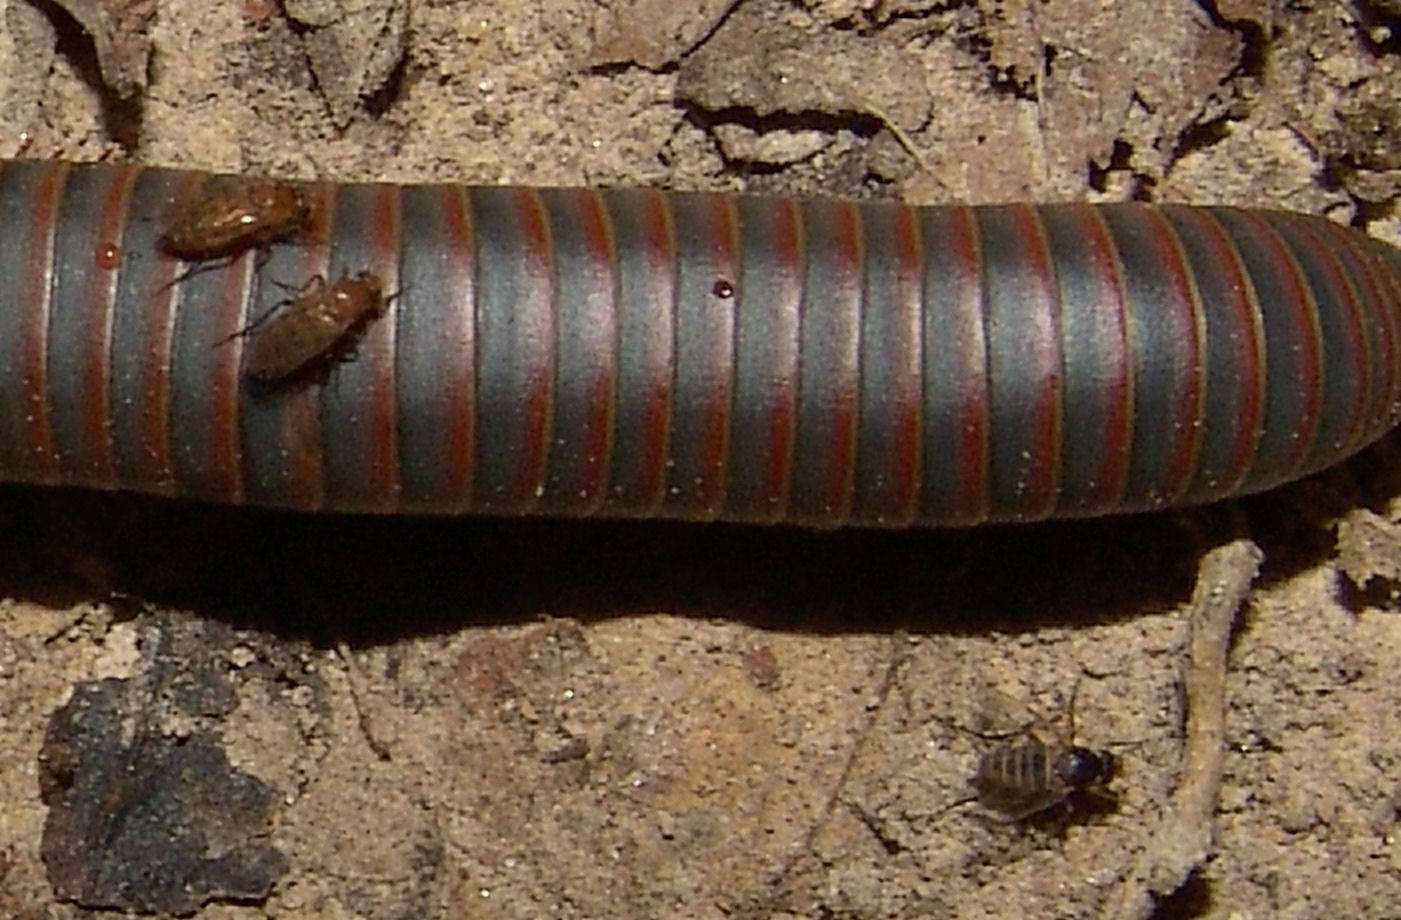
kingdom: Animalia
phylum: Arthropoda
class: Insecta
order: Diptera
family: Phoridae
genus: Myriophora
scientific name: Myriophora
